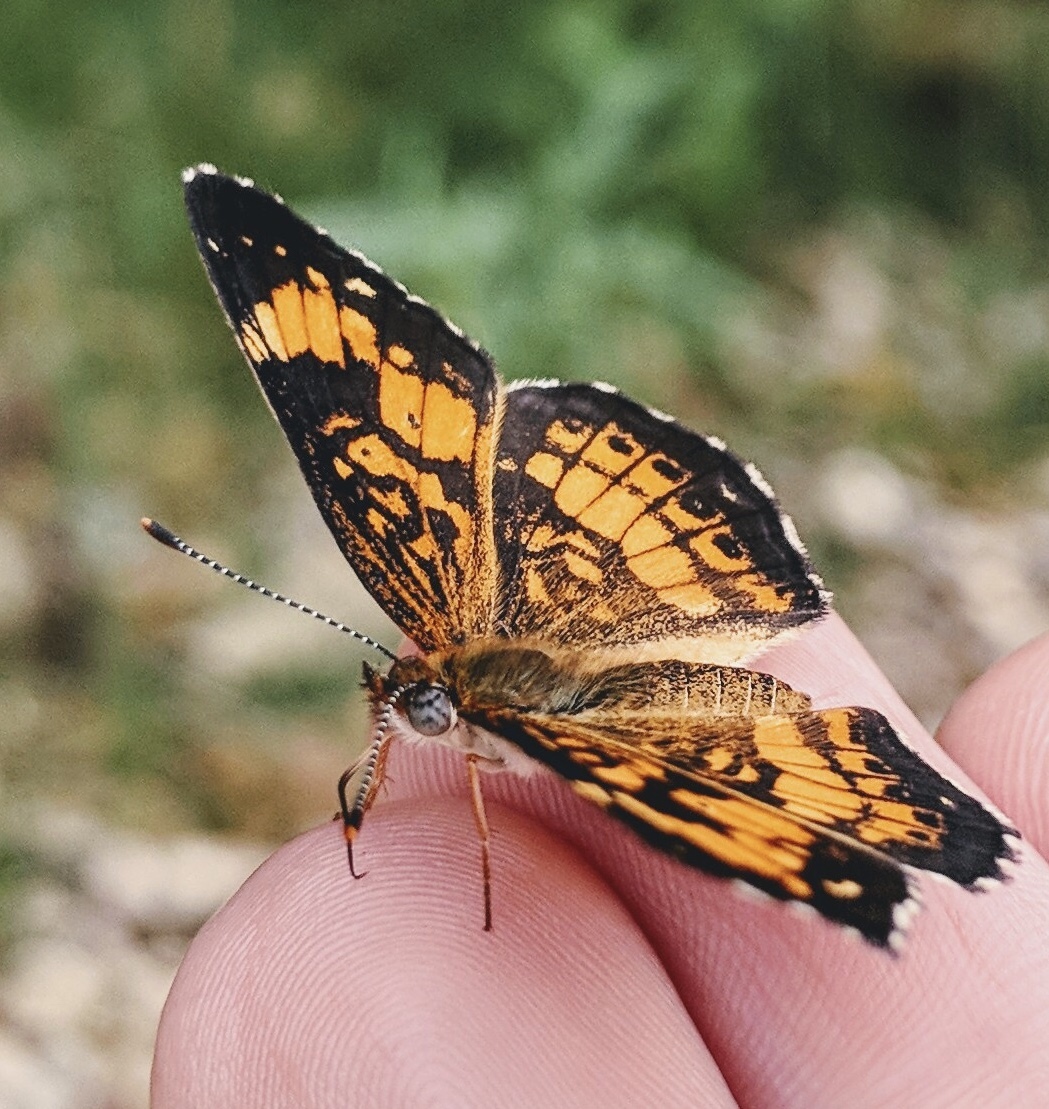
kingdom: Animalia
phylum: Arthropoda
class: Insecta
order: Lepidoptera
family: Nymphalidae
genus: Chlosyne
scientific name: Chlosyne nycteis
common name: Silvery checkerspot
